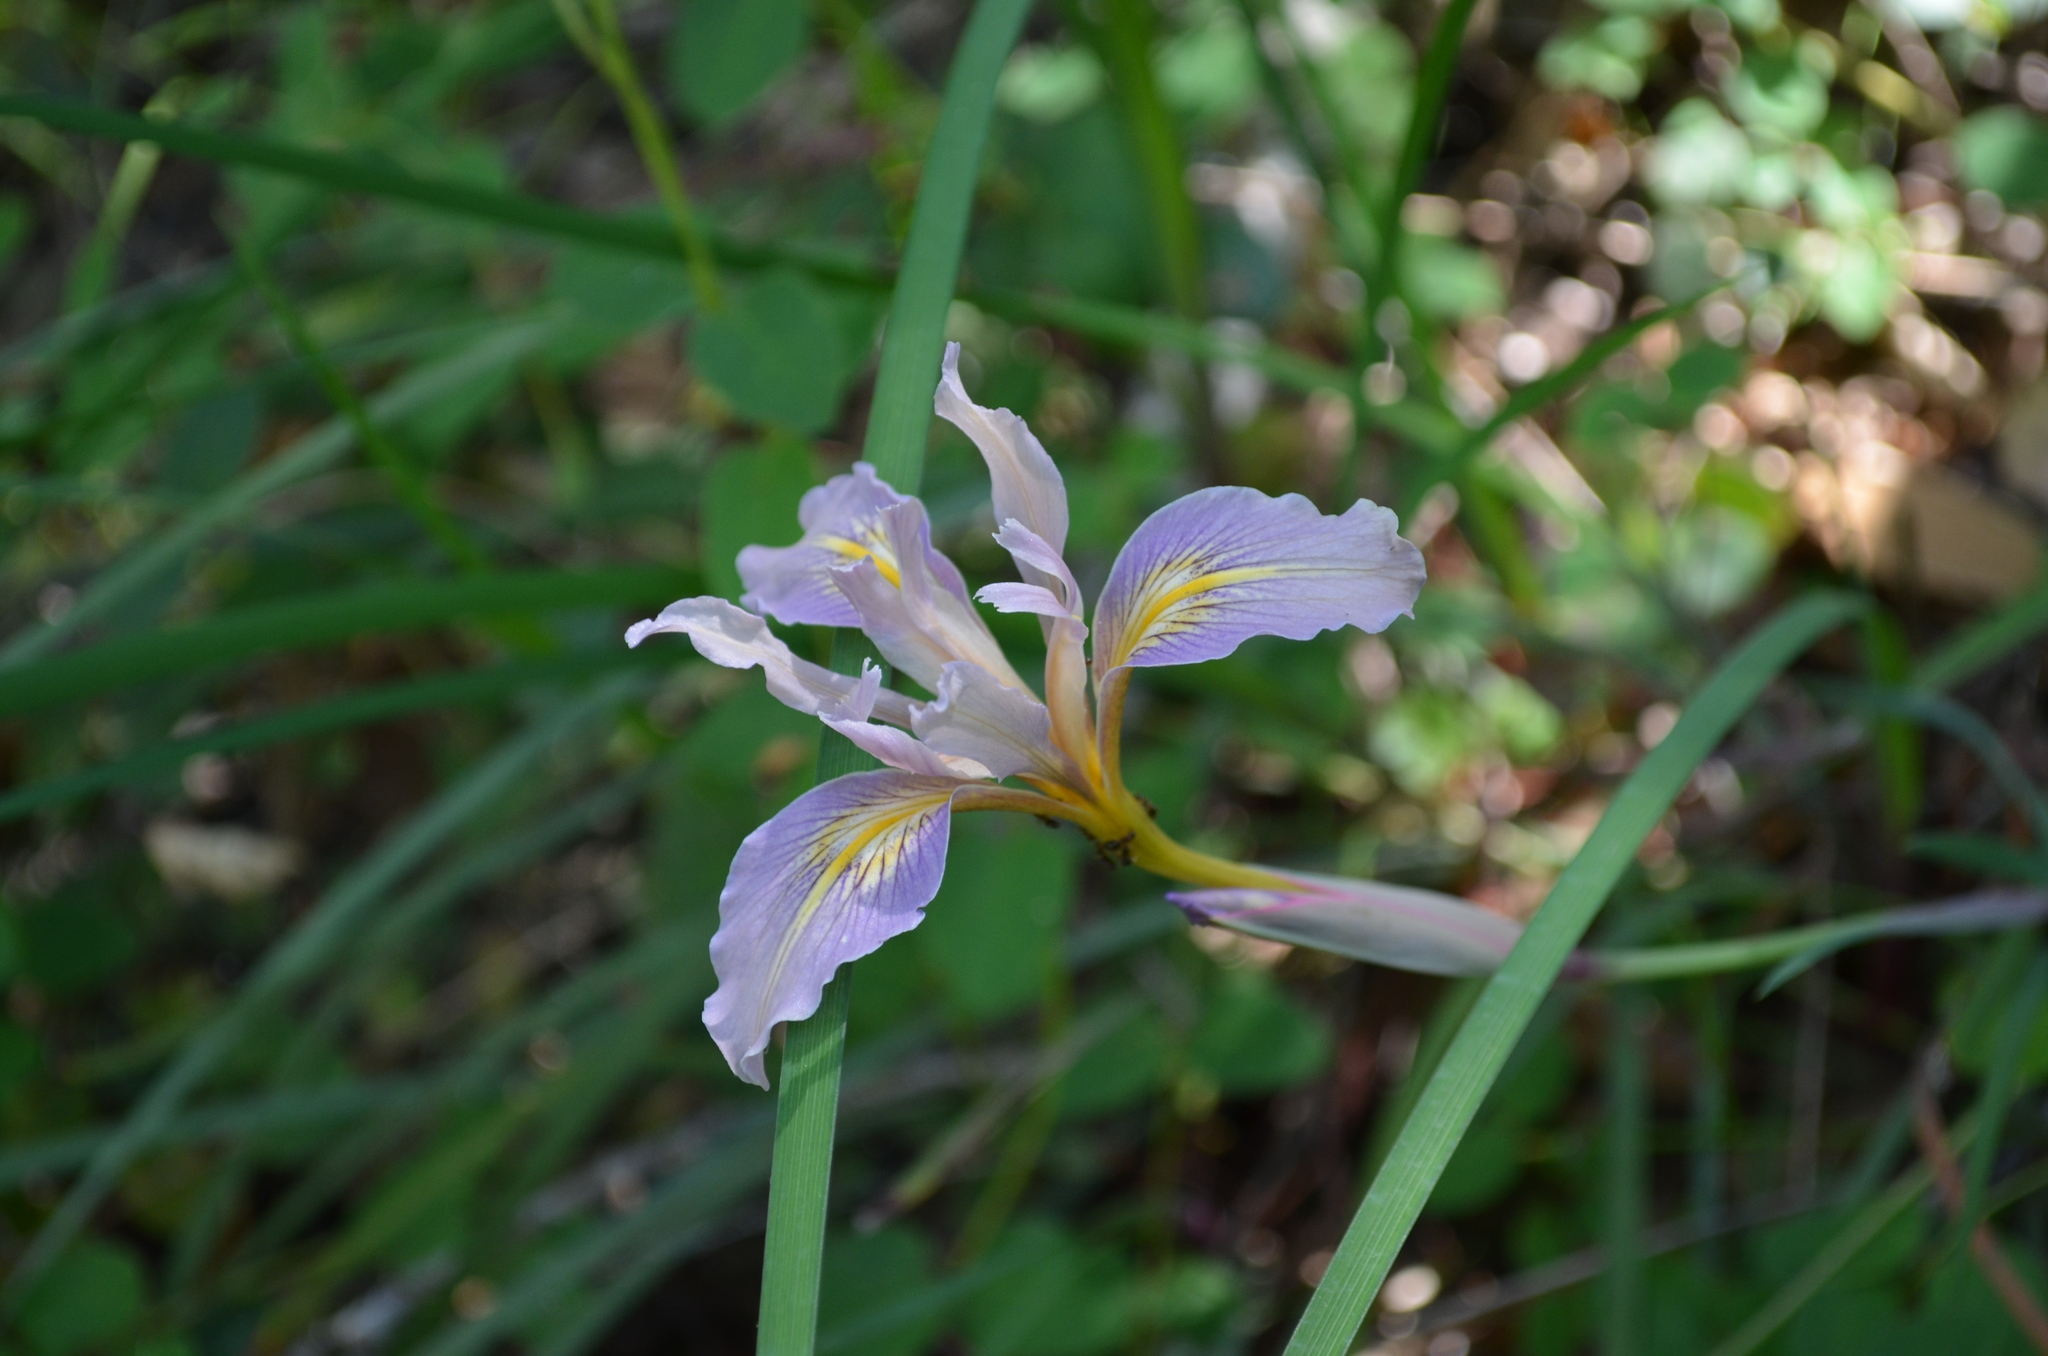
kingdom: Plantae
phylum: Tracheophyta
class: Liliopsida
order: Asparagales
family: Iridaceae
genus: Iris
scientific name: Iris macrosiphon
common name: Ground iris
